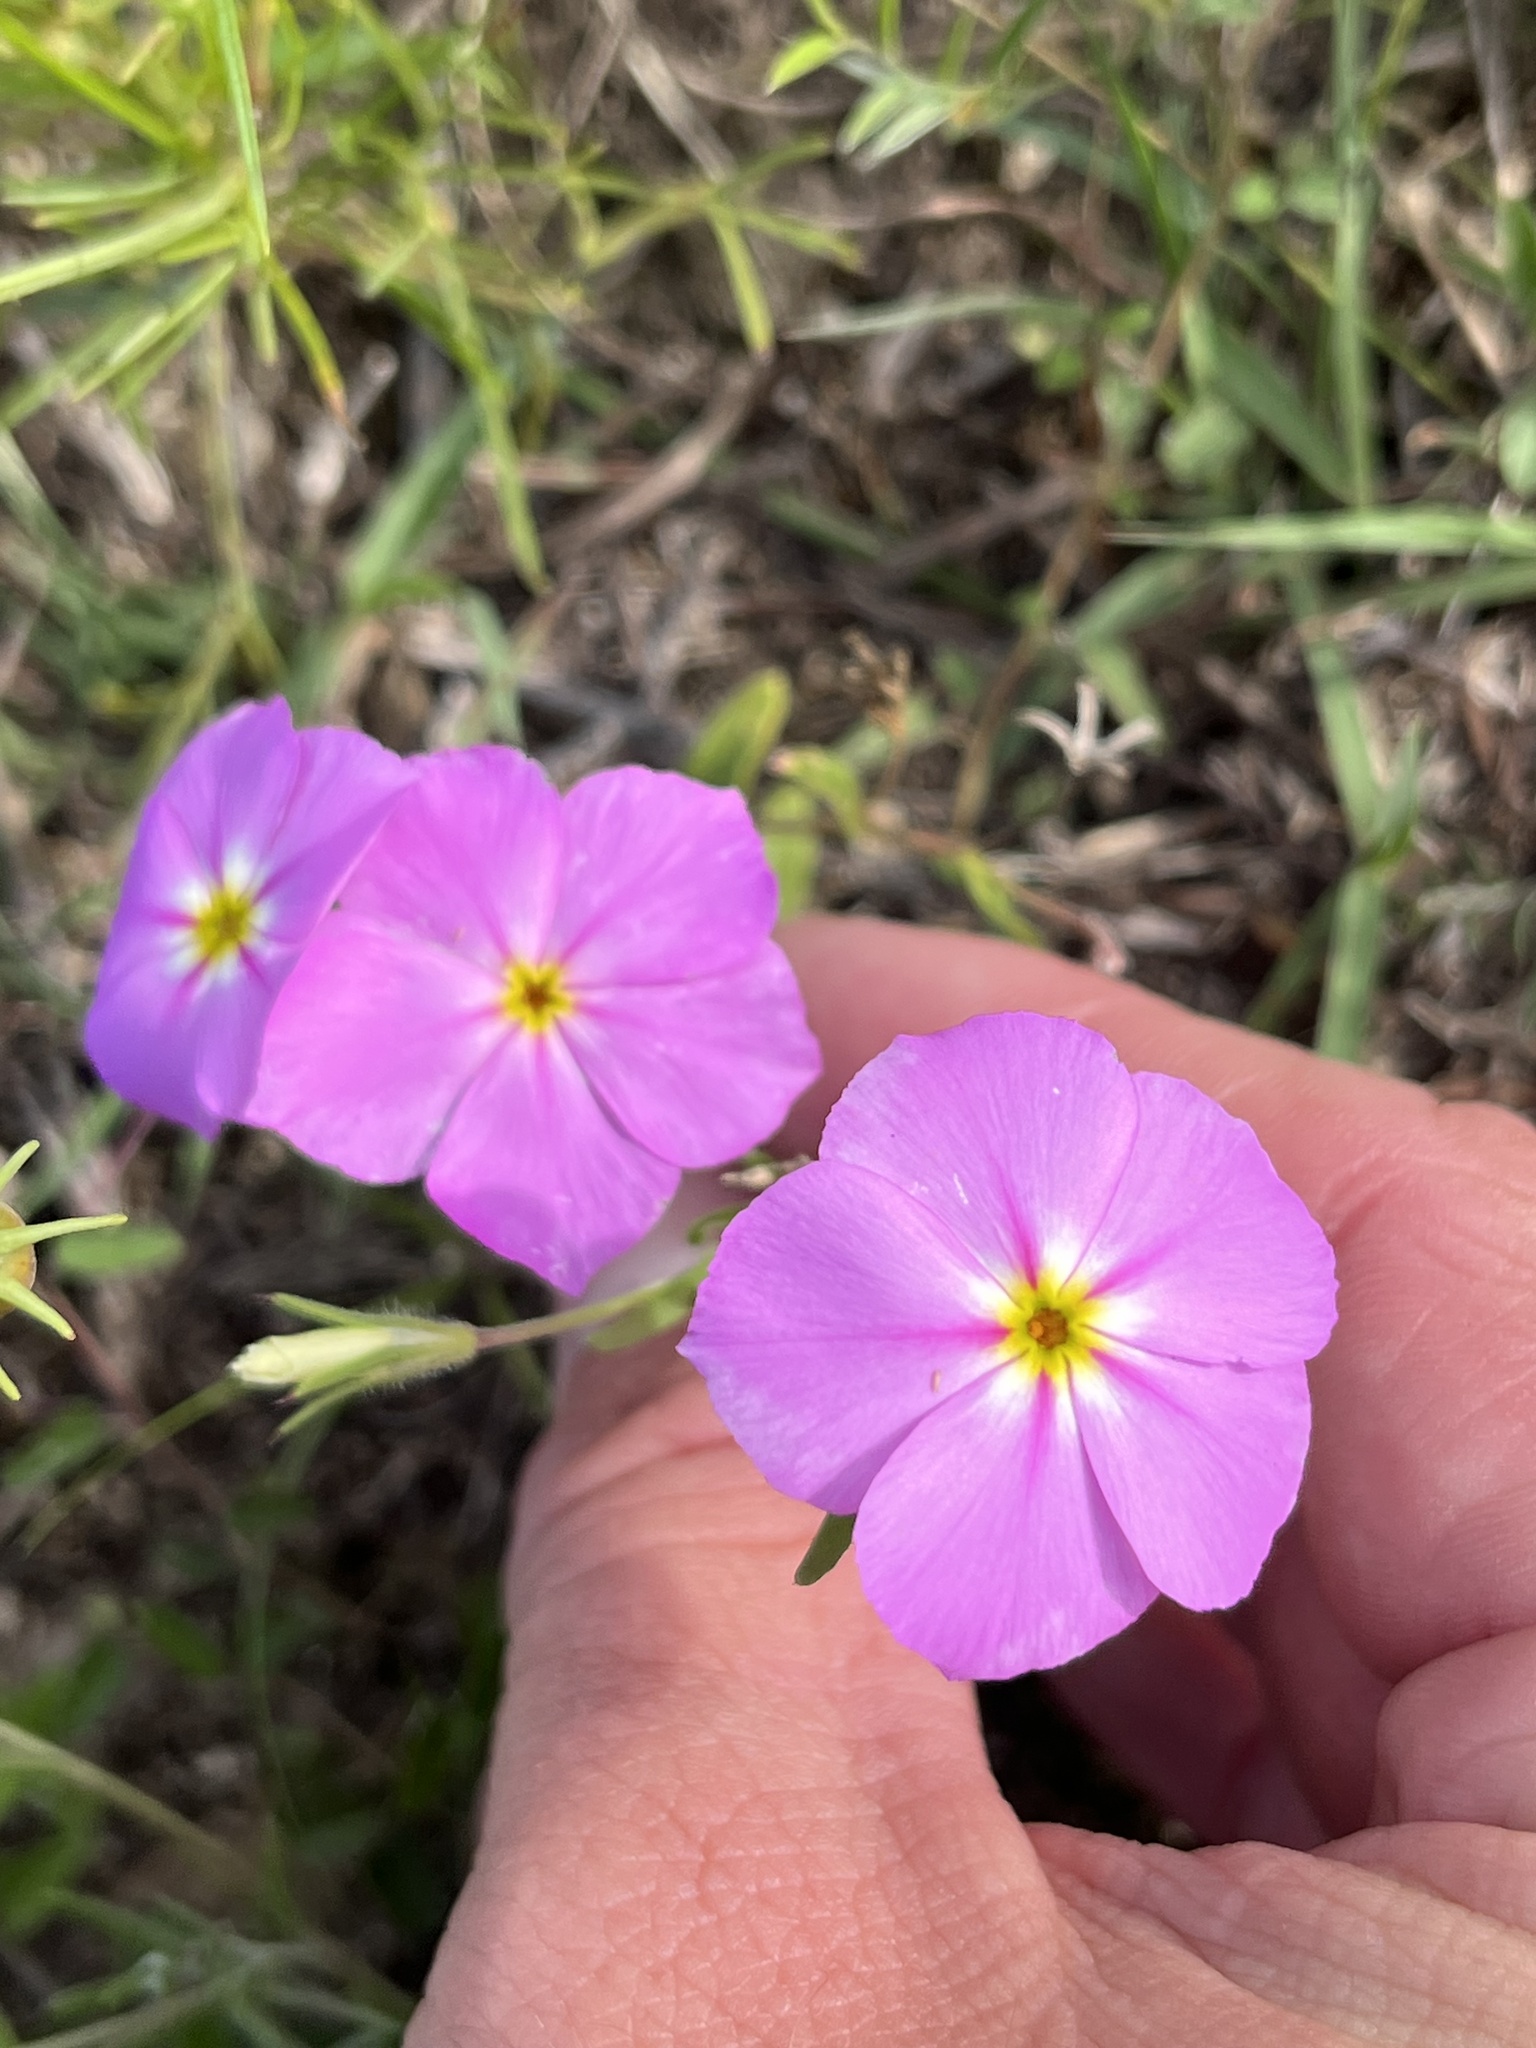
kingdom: Plantae
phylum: Tracheophyta
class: Magnoliopsida
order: Ericales
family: Polemoniaceae
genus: Phlox
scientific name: Phlox roemeriana
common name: Roemer's phlox
